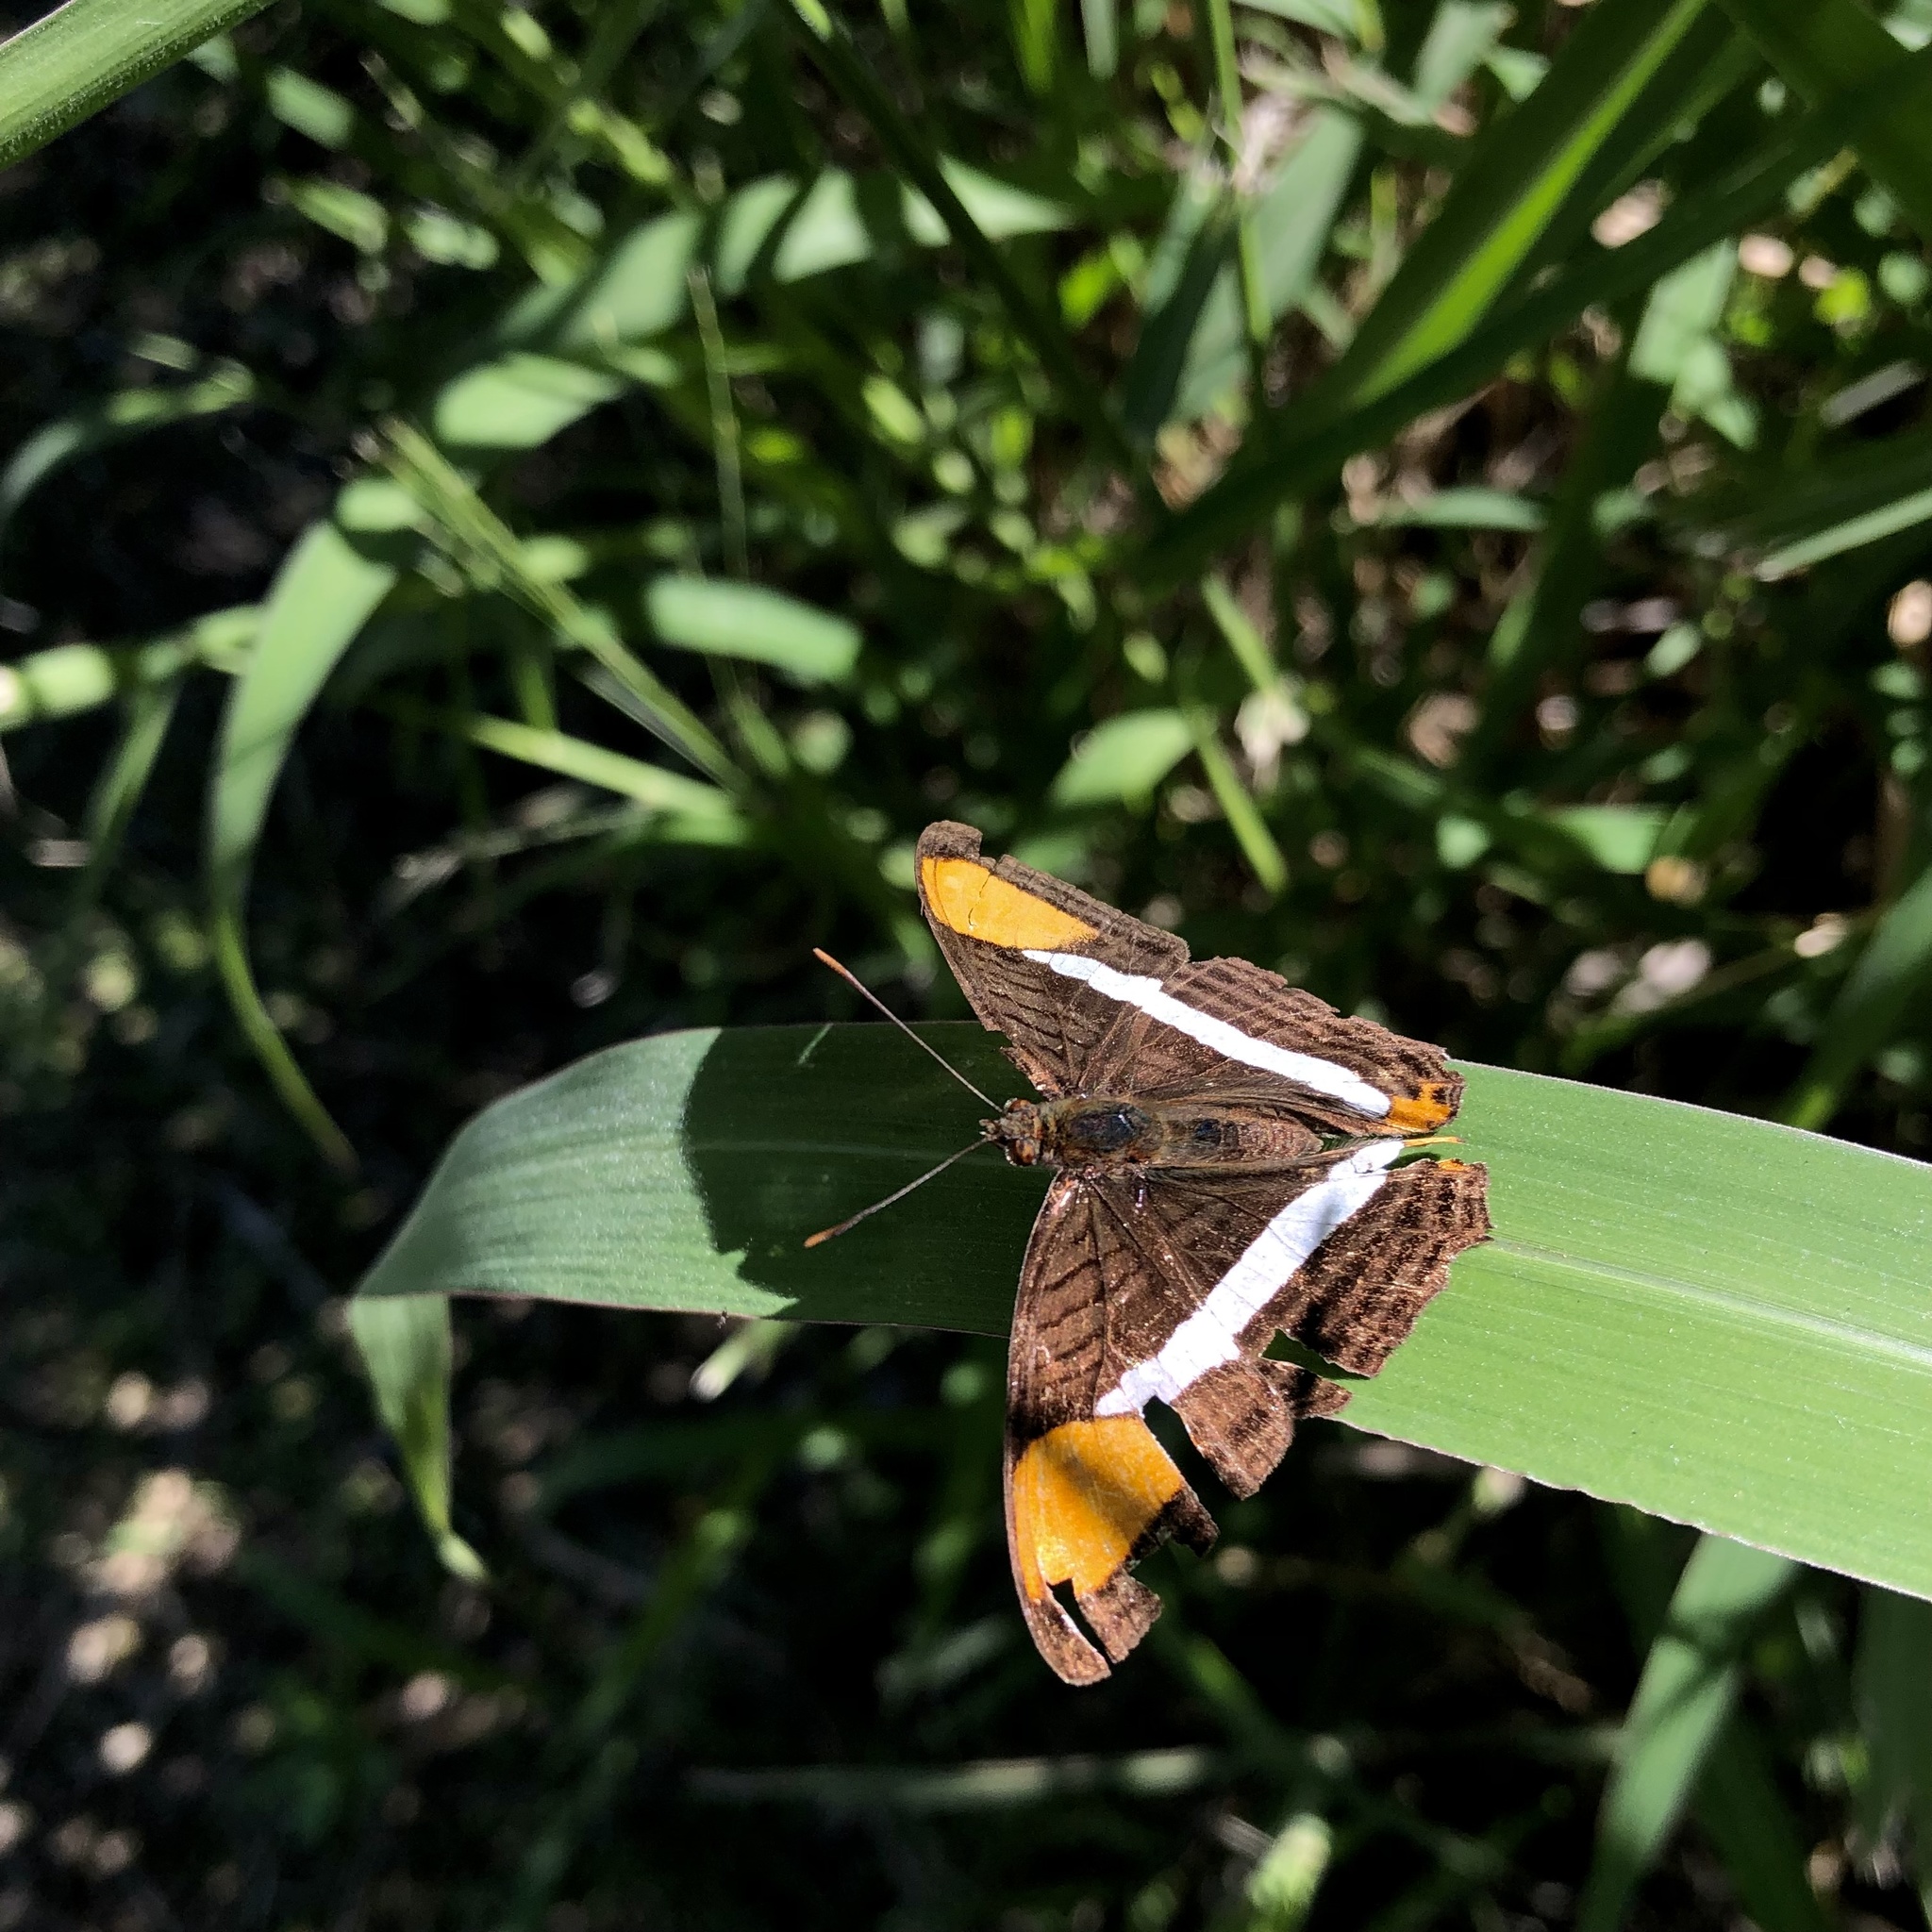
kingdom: Animalia
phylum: Arthropoda
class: Insecta
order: Lepidoptera
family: Nymphalidae
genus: Limenitis
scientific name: Limenitis syma
